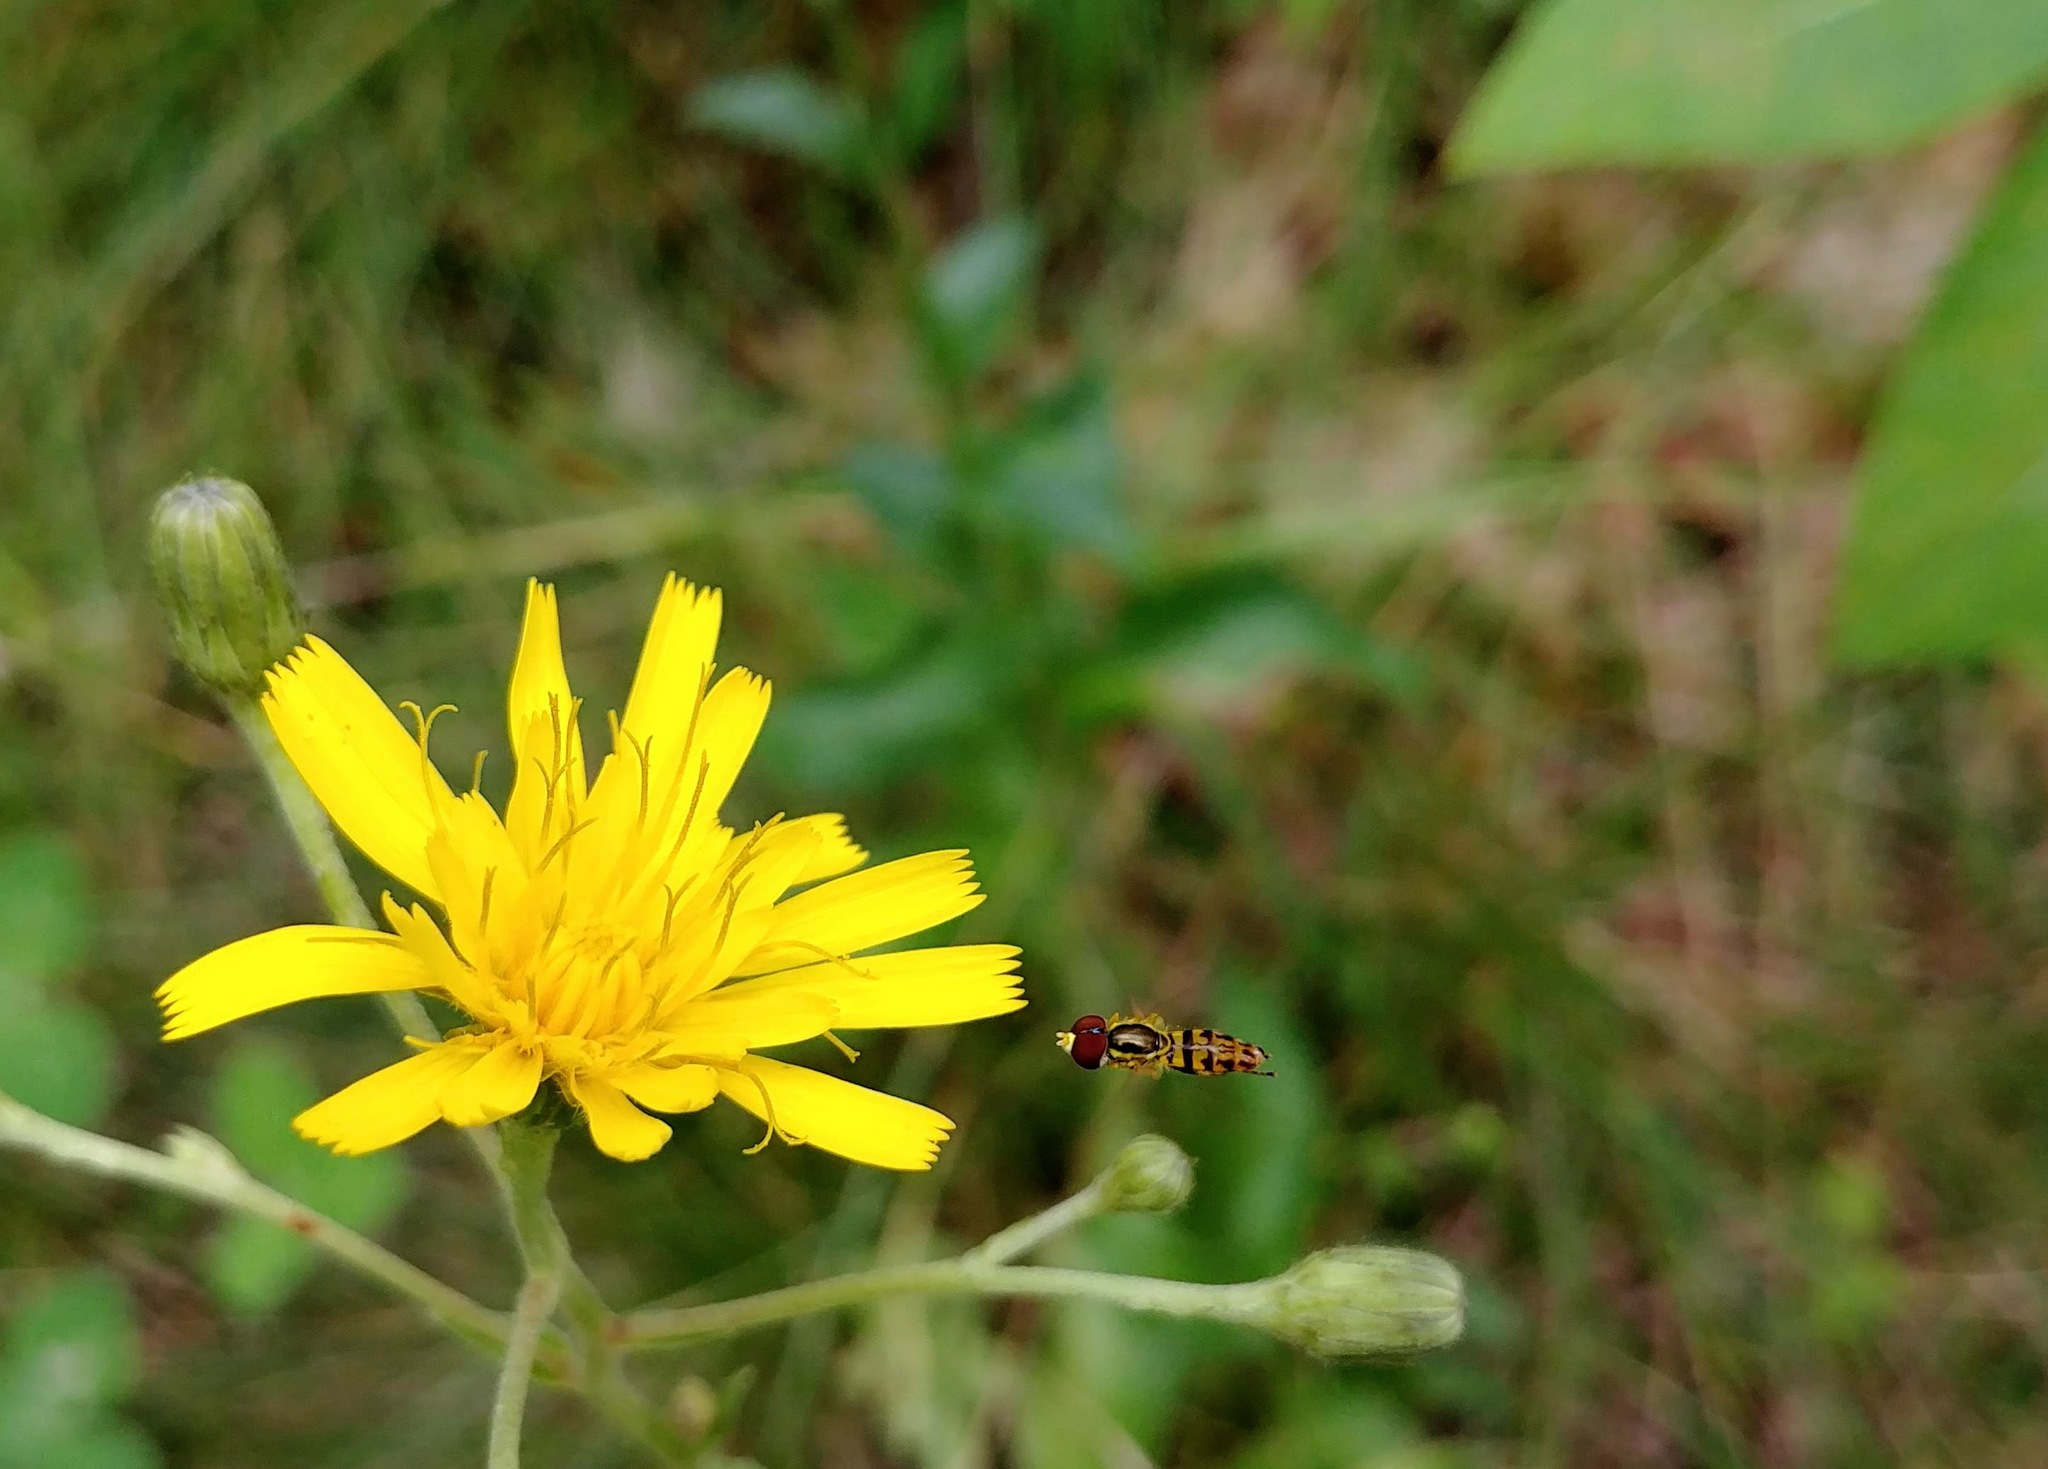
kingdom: Animalia
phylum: Arthropoda
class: Insecta
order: Diptera
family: Syrphidae
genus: Toxomerus
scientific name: Toxomerus geminatus
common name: Eastern calligrapher
